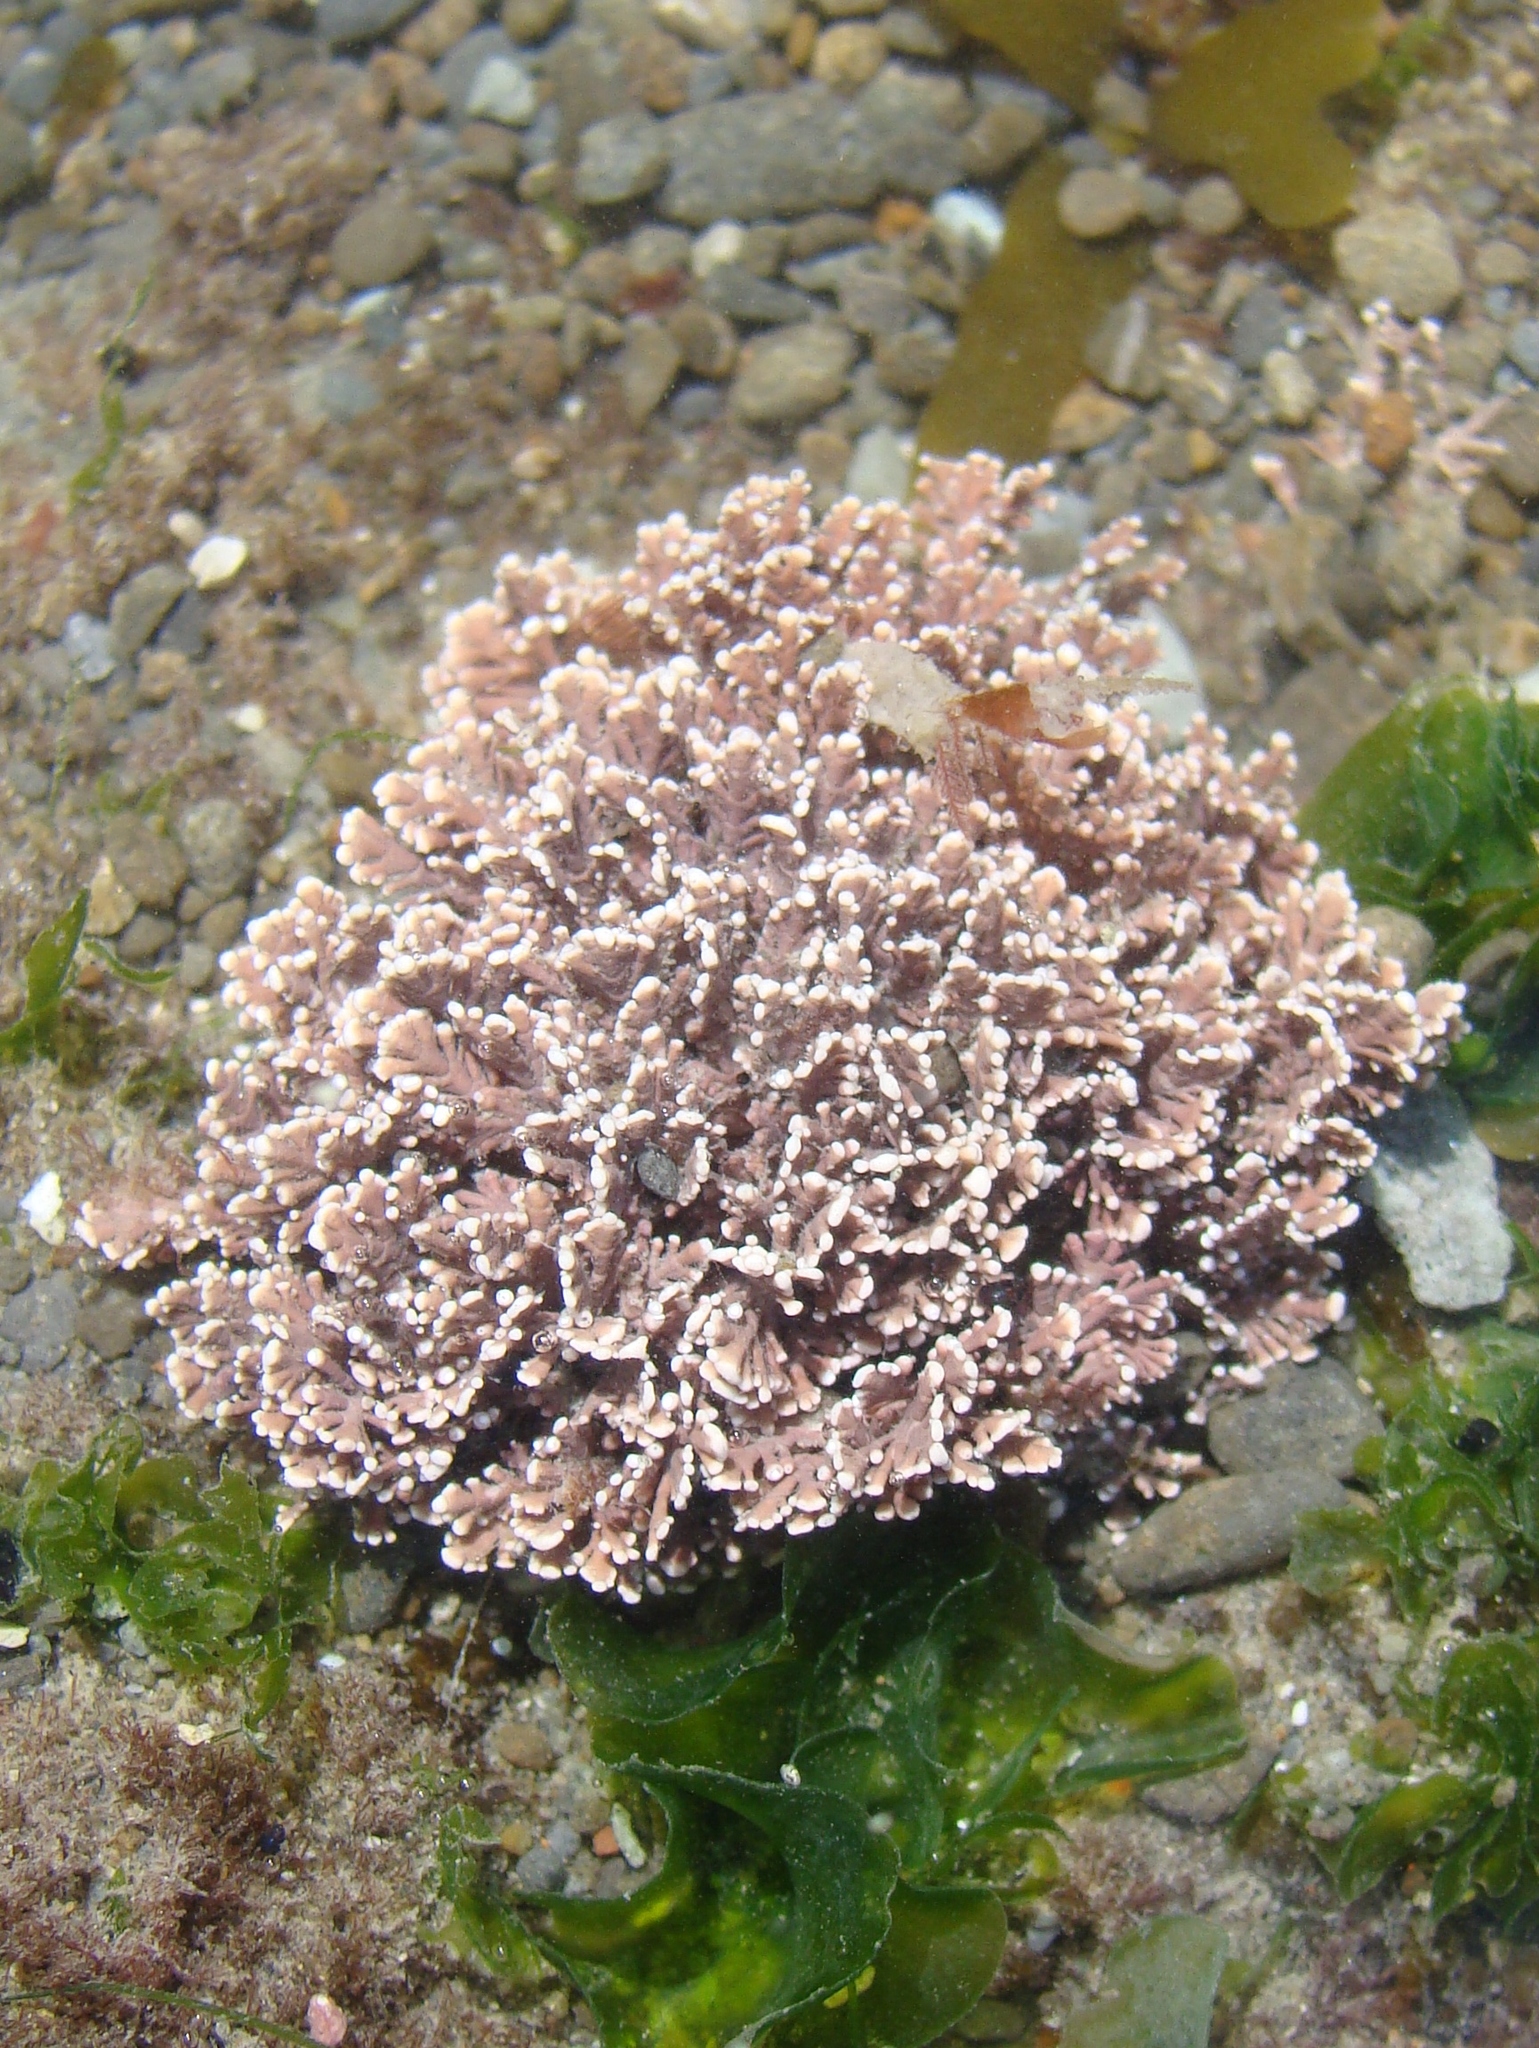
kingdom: Plantae
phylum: Rhodophyta
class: Florideophyceae
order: Corallinales
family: Corallinaceae
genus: Corallina
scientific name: Corallina officinalis
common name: Coral weed
